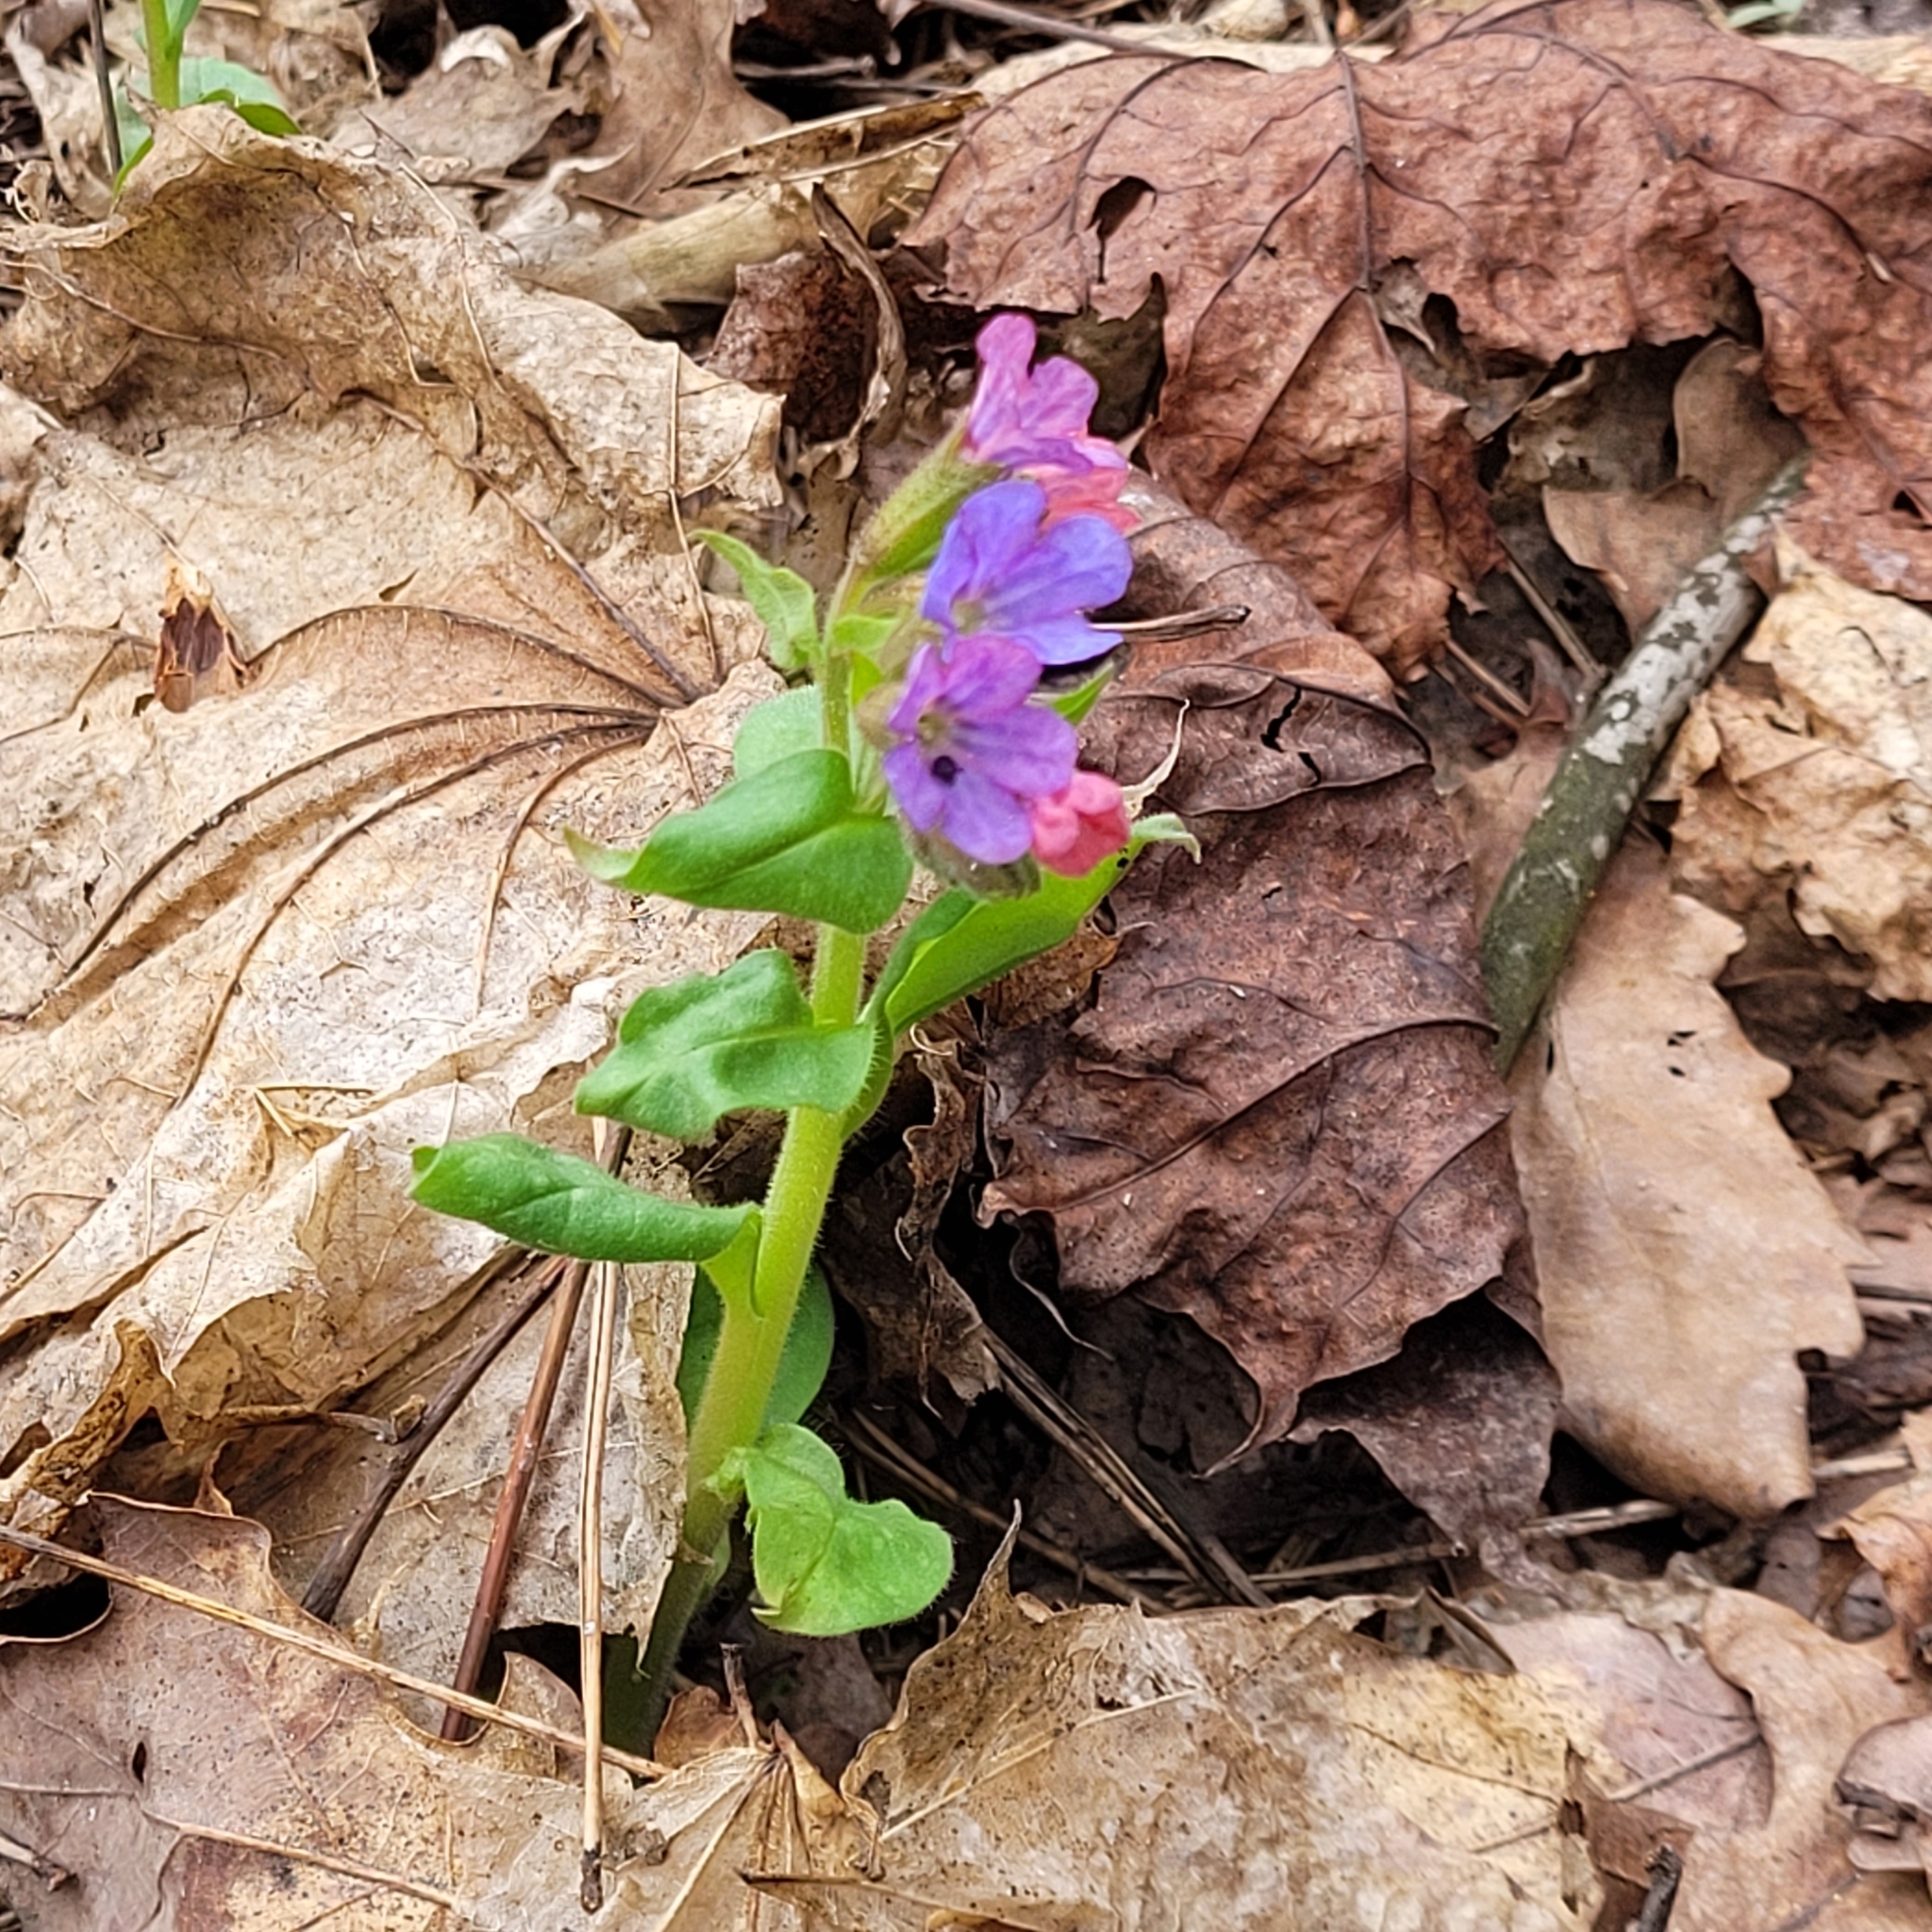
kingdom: Plantae
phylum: Tracheophyta
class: Magnoliopsida
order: Boraginales
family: Boraginaceae
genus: Pulmonaria
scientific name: Pulmonaria obscura
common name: Suffolk lungwort
